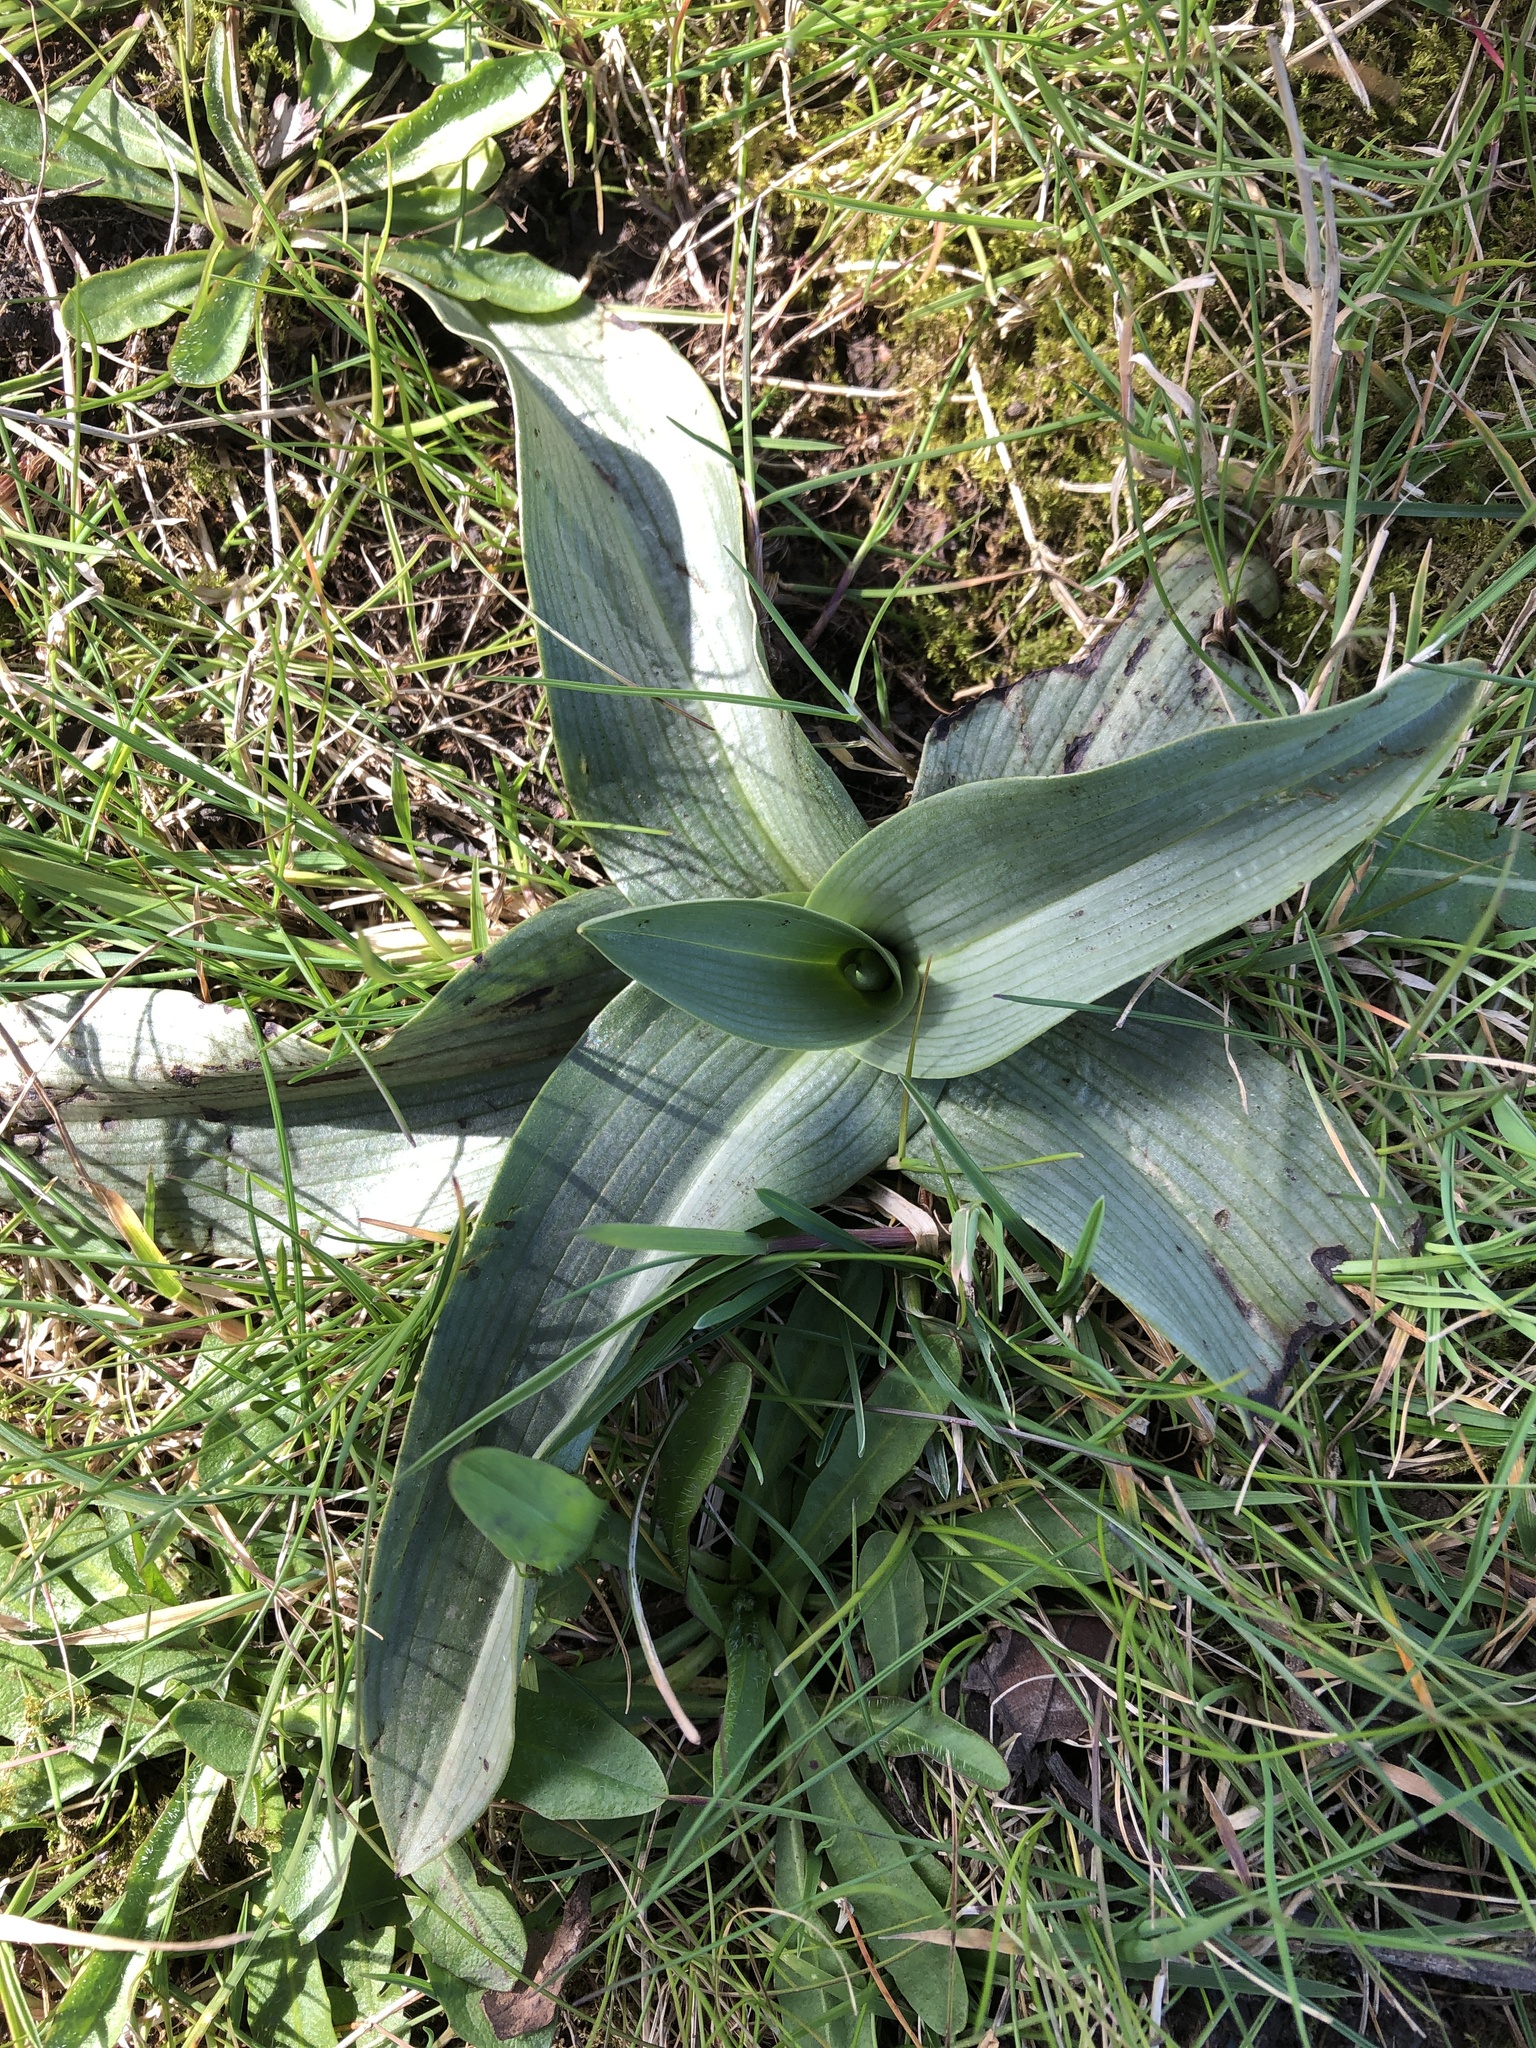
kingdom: Plantae
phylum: Tracheophyta
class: Liliopsida
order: Asparagales
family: Orchidaceae
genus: Ophrys
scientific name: Ophrys apifera
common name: Bee orchid
